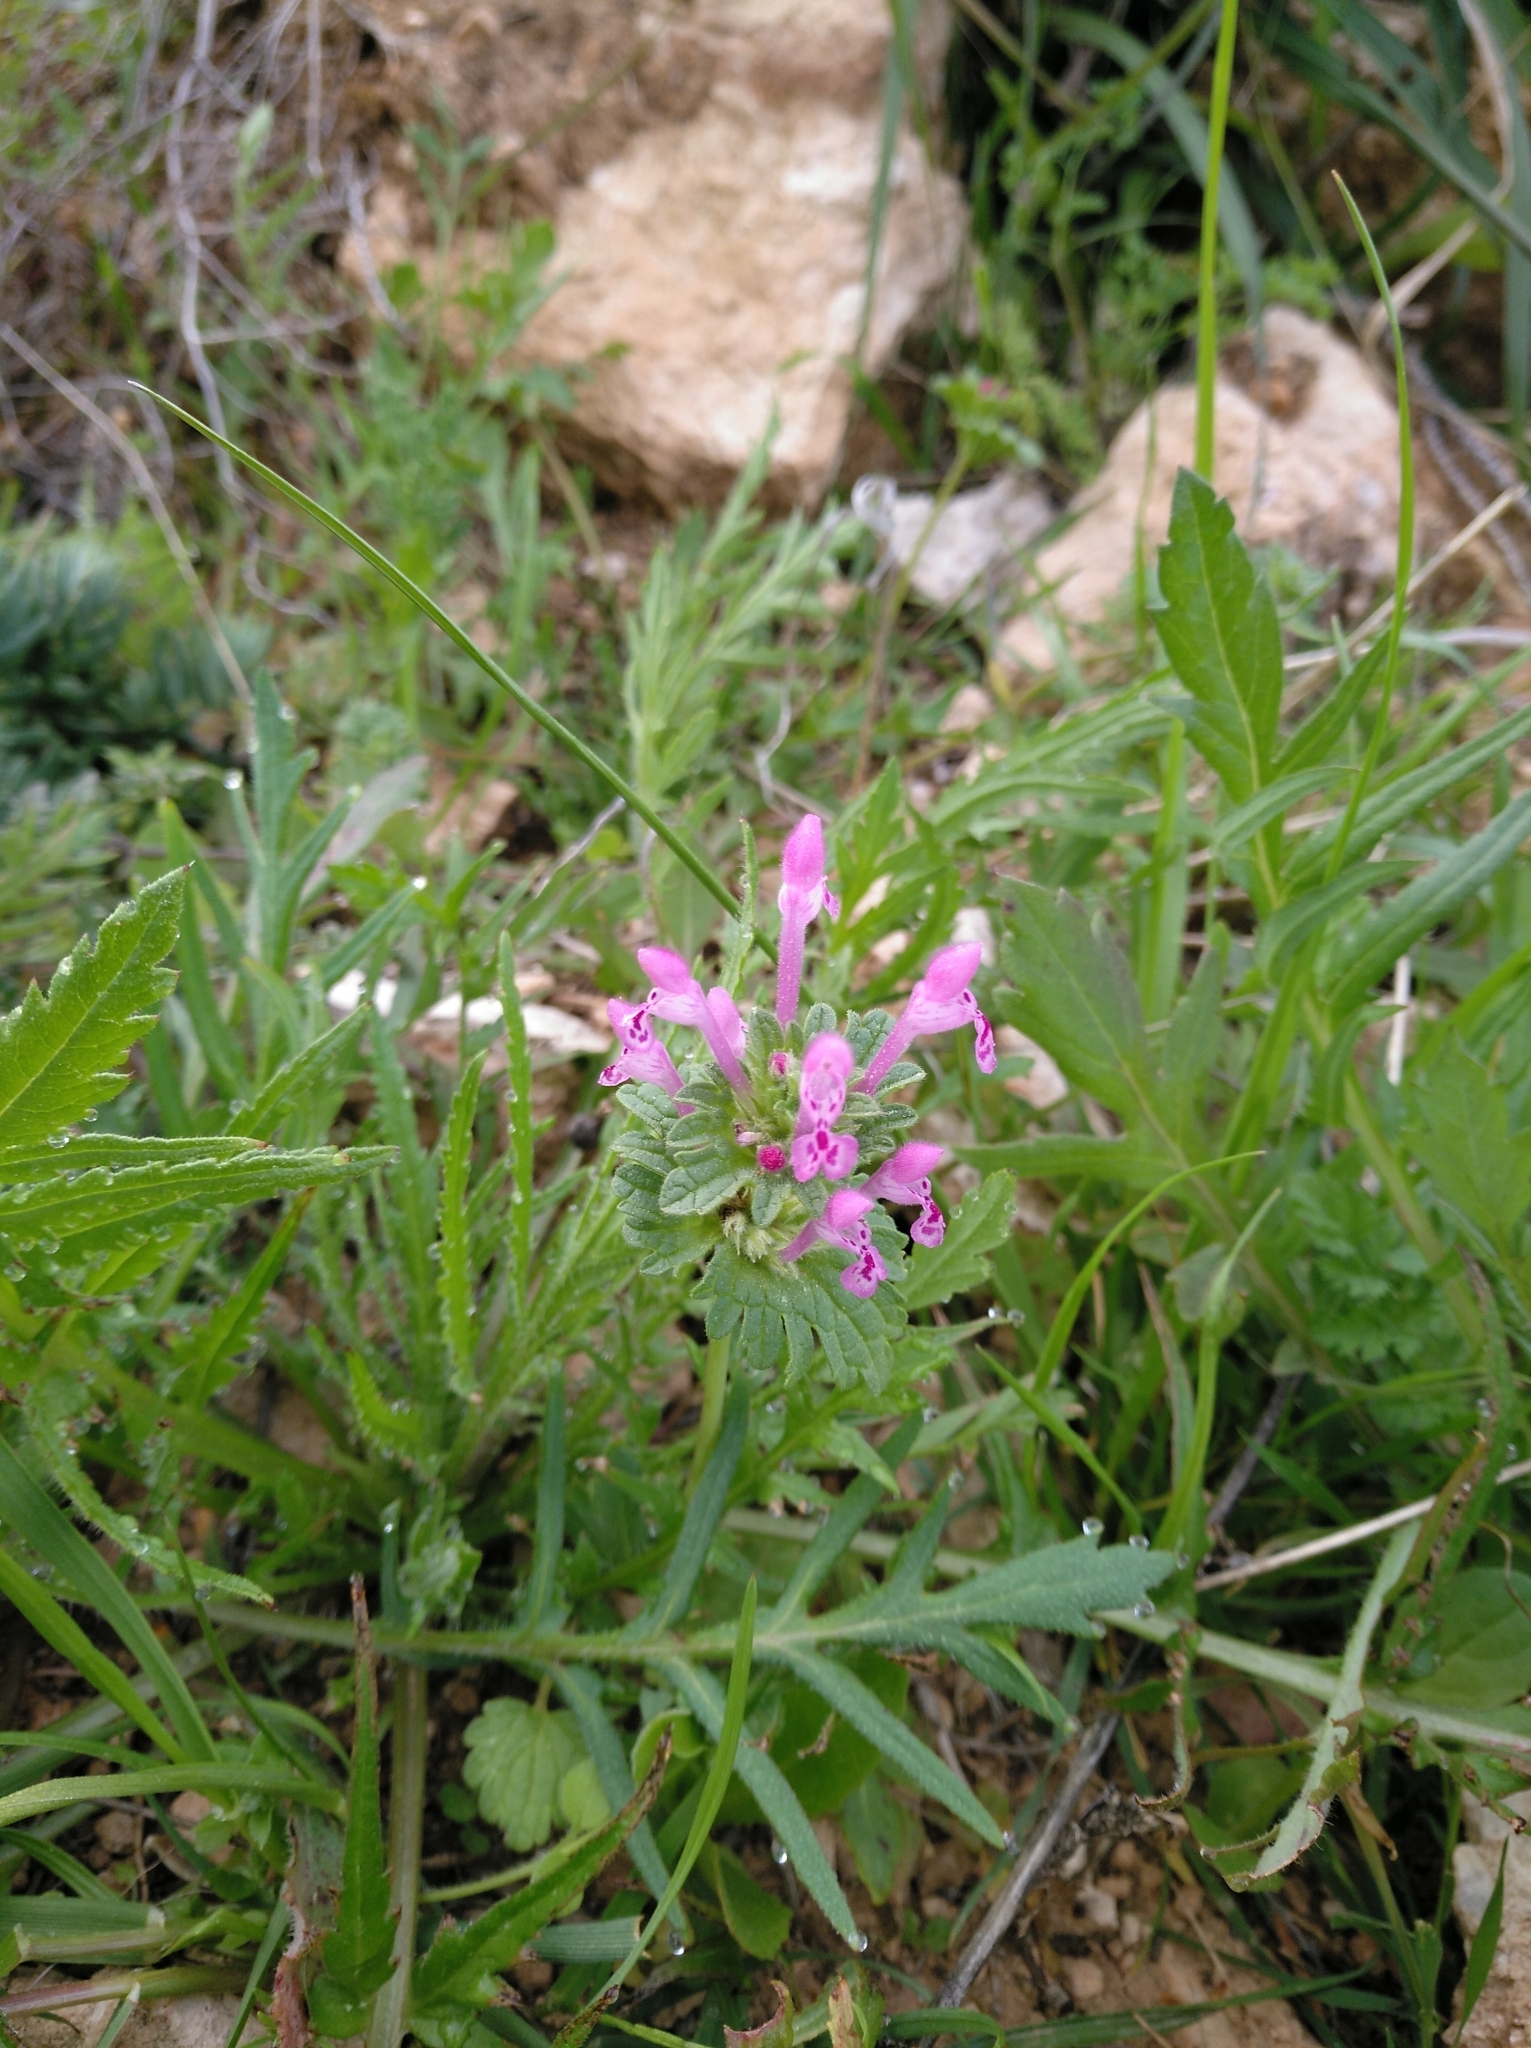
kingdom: Plantae
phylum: Tracheophyta
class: Magnoliopsida
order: Lamiales
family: Lamiaceae
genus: Lamium
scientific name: Lamium amplexicaule
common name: Henbit dead-nettle
